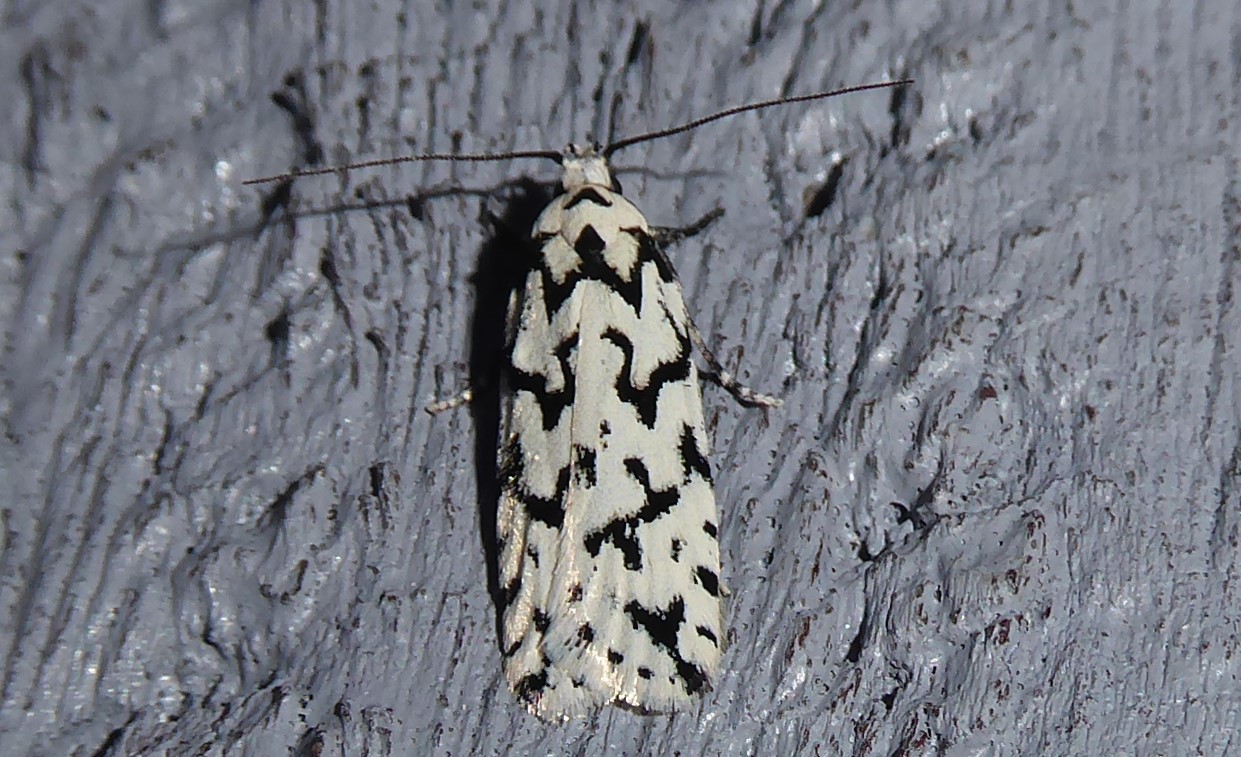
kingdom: Animalia
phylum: Arthropoda
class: Insecta
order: Lepidoptera
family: Oecophoridae
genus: Izatha
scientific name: Izatha katadiktya
